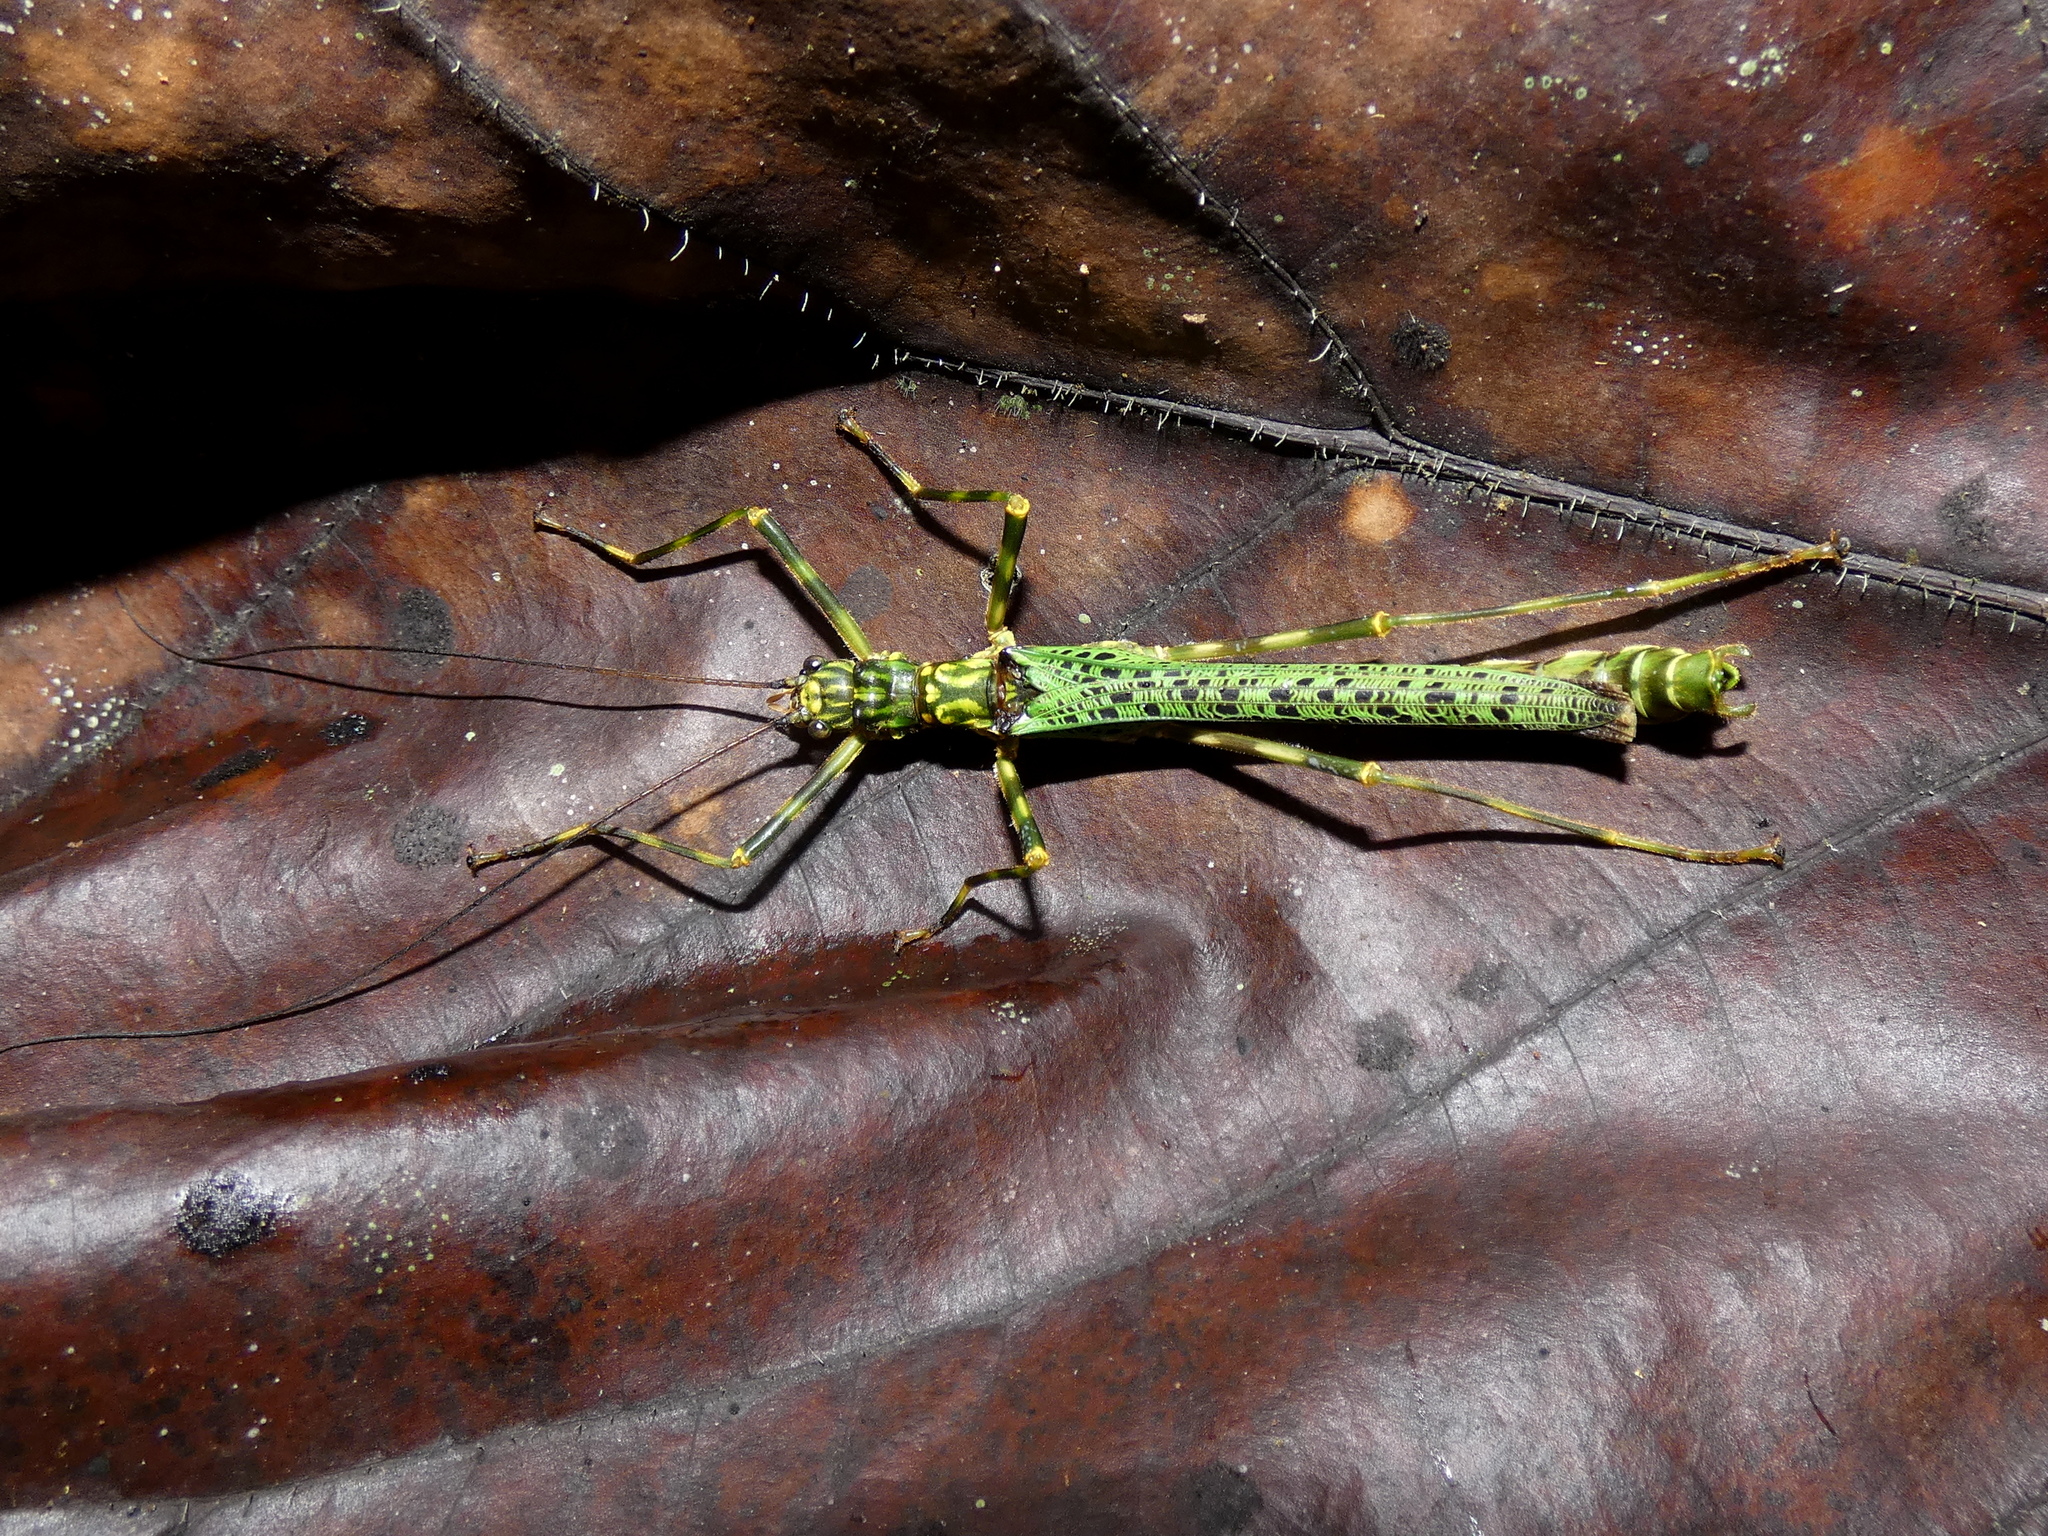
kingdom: Animalia
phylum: Arthropoda
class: Insecta
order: Phasmida
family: Aschiphasmatidae
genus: Aschiphasma
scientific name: Aschiphasma annulipes
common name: Black and green phasma
